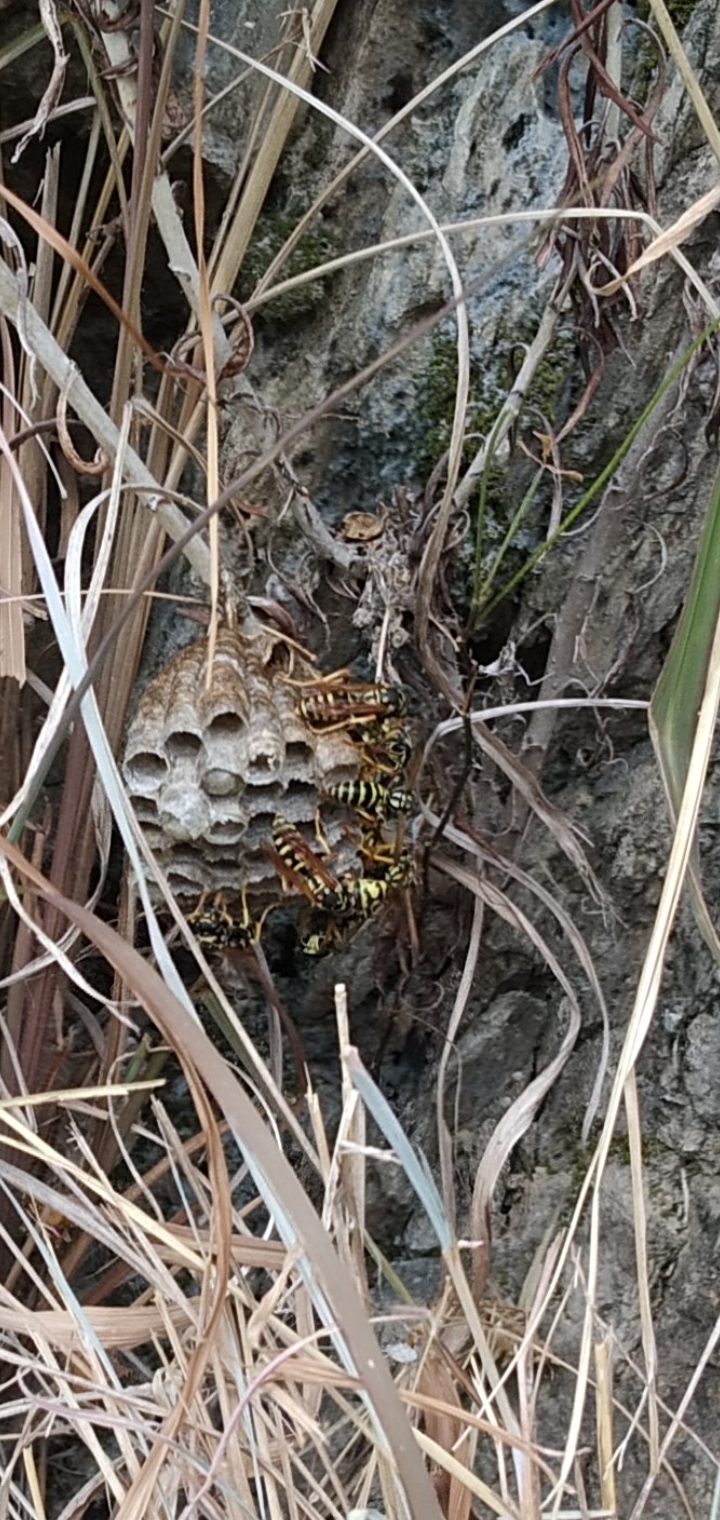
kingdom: Animalia
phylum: Arthropoda
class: Insecta
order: Hymenoptera
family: Eumenidae
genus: Polistes
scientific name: Polistes dominula
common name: Paper wasp
